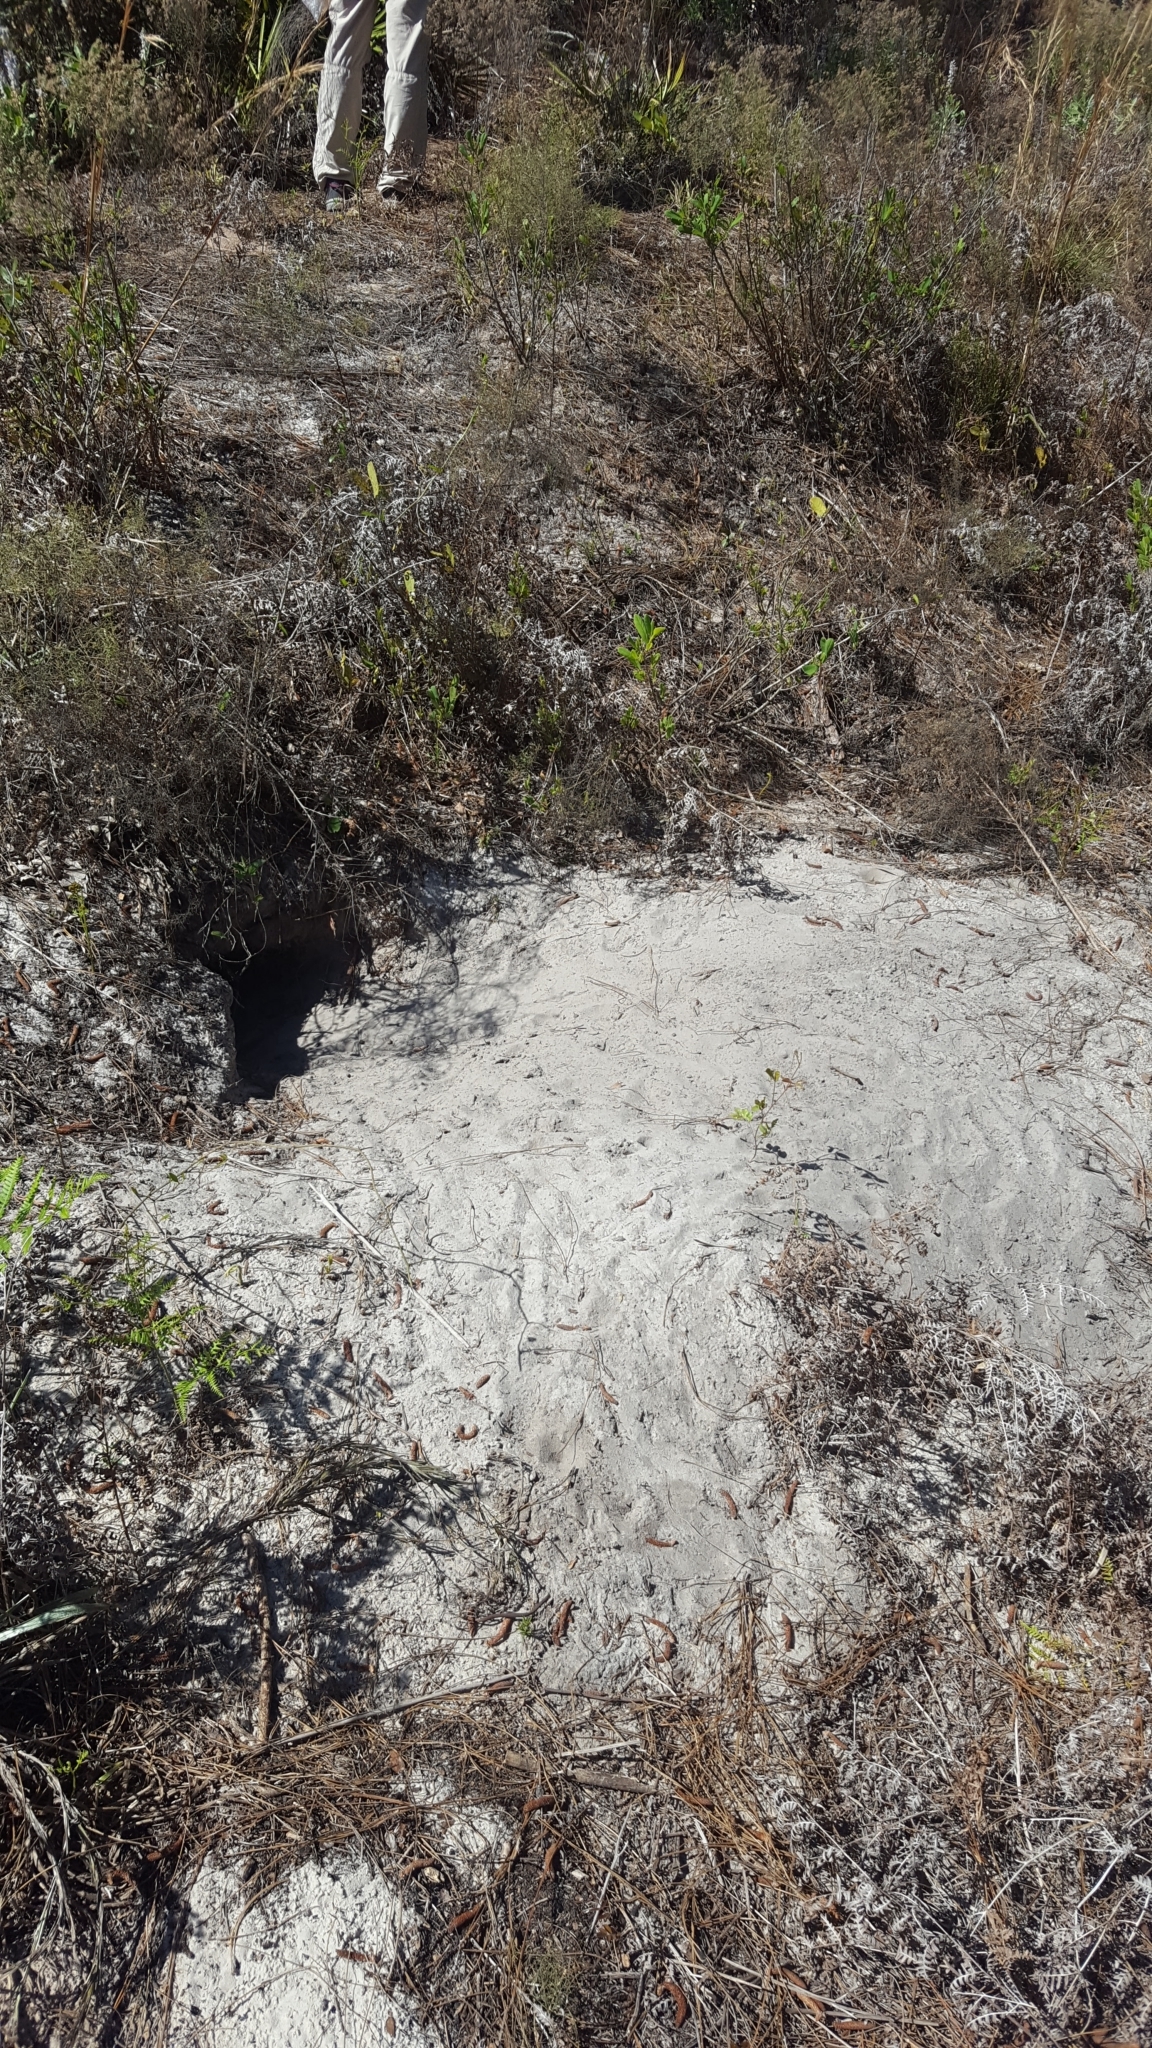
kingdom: Animalia
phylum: Chordata
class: Testudines
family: Testudinidae
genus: Gopherus
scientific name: Gopherus polyphemus
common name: Florida gopher tortoise
